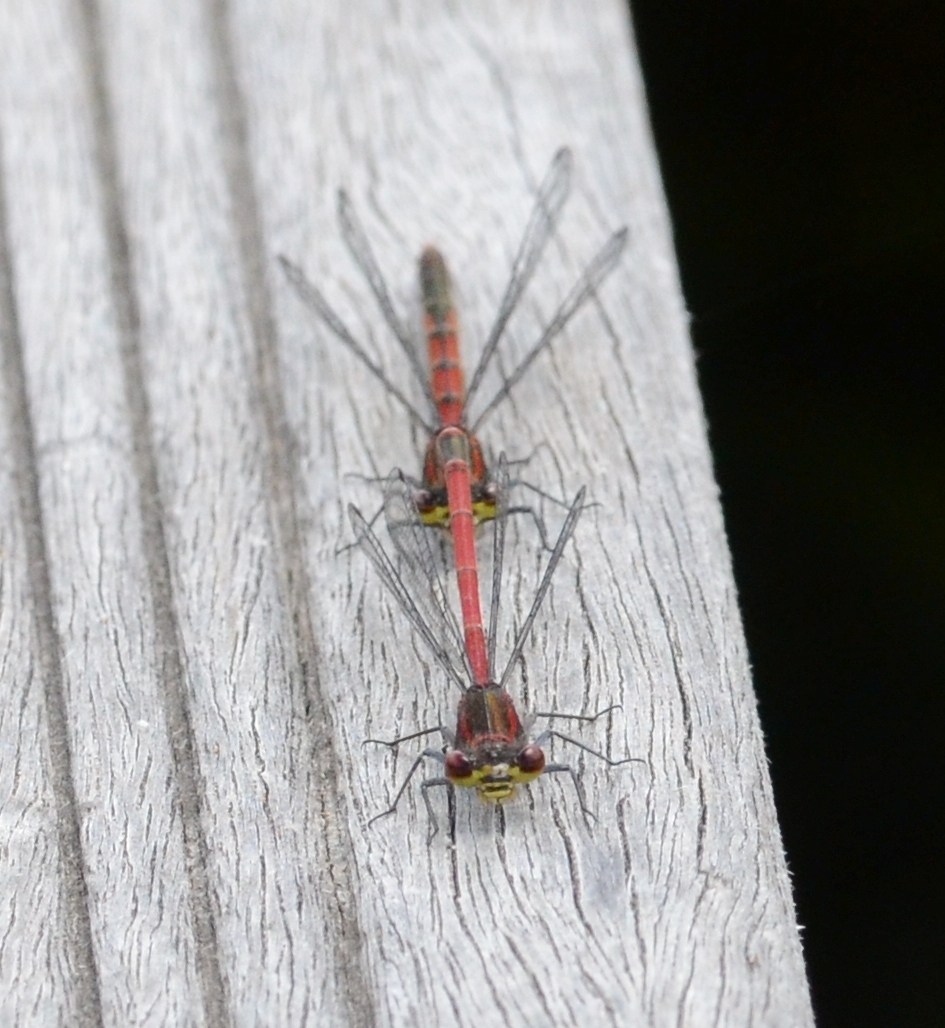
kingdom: Animalia
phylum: Arthropoda
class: Insecta
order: Odonata
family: Coenagrionidae
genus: Pyrrhosoma
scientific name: Pyrrhosoma nymphula
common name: Large red damsel
